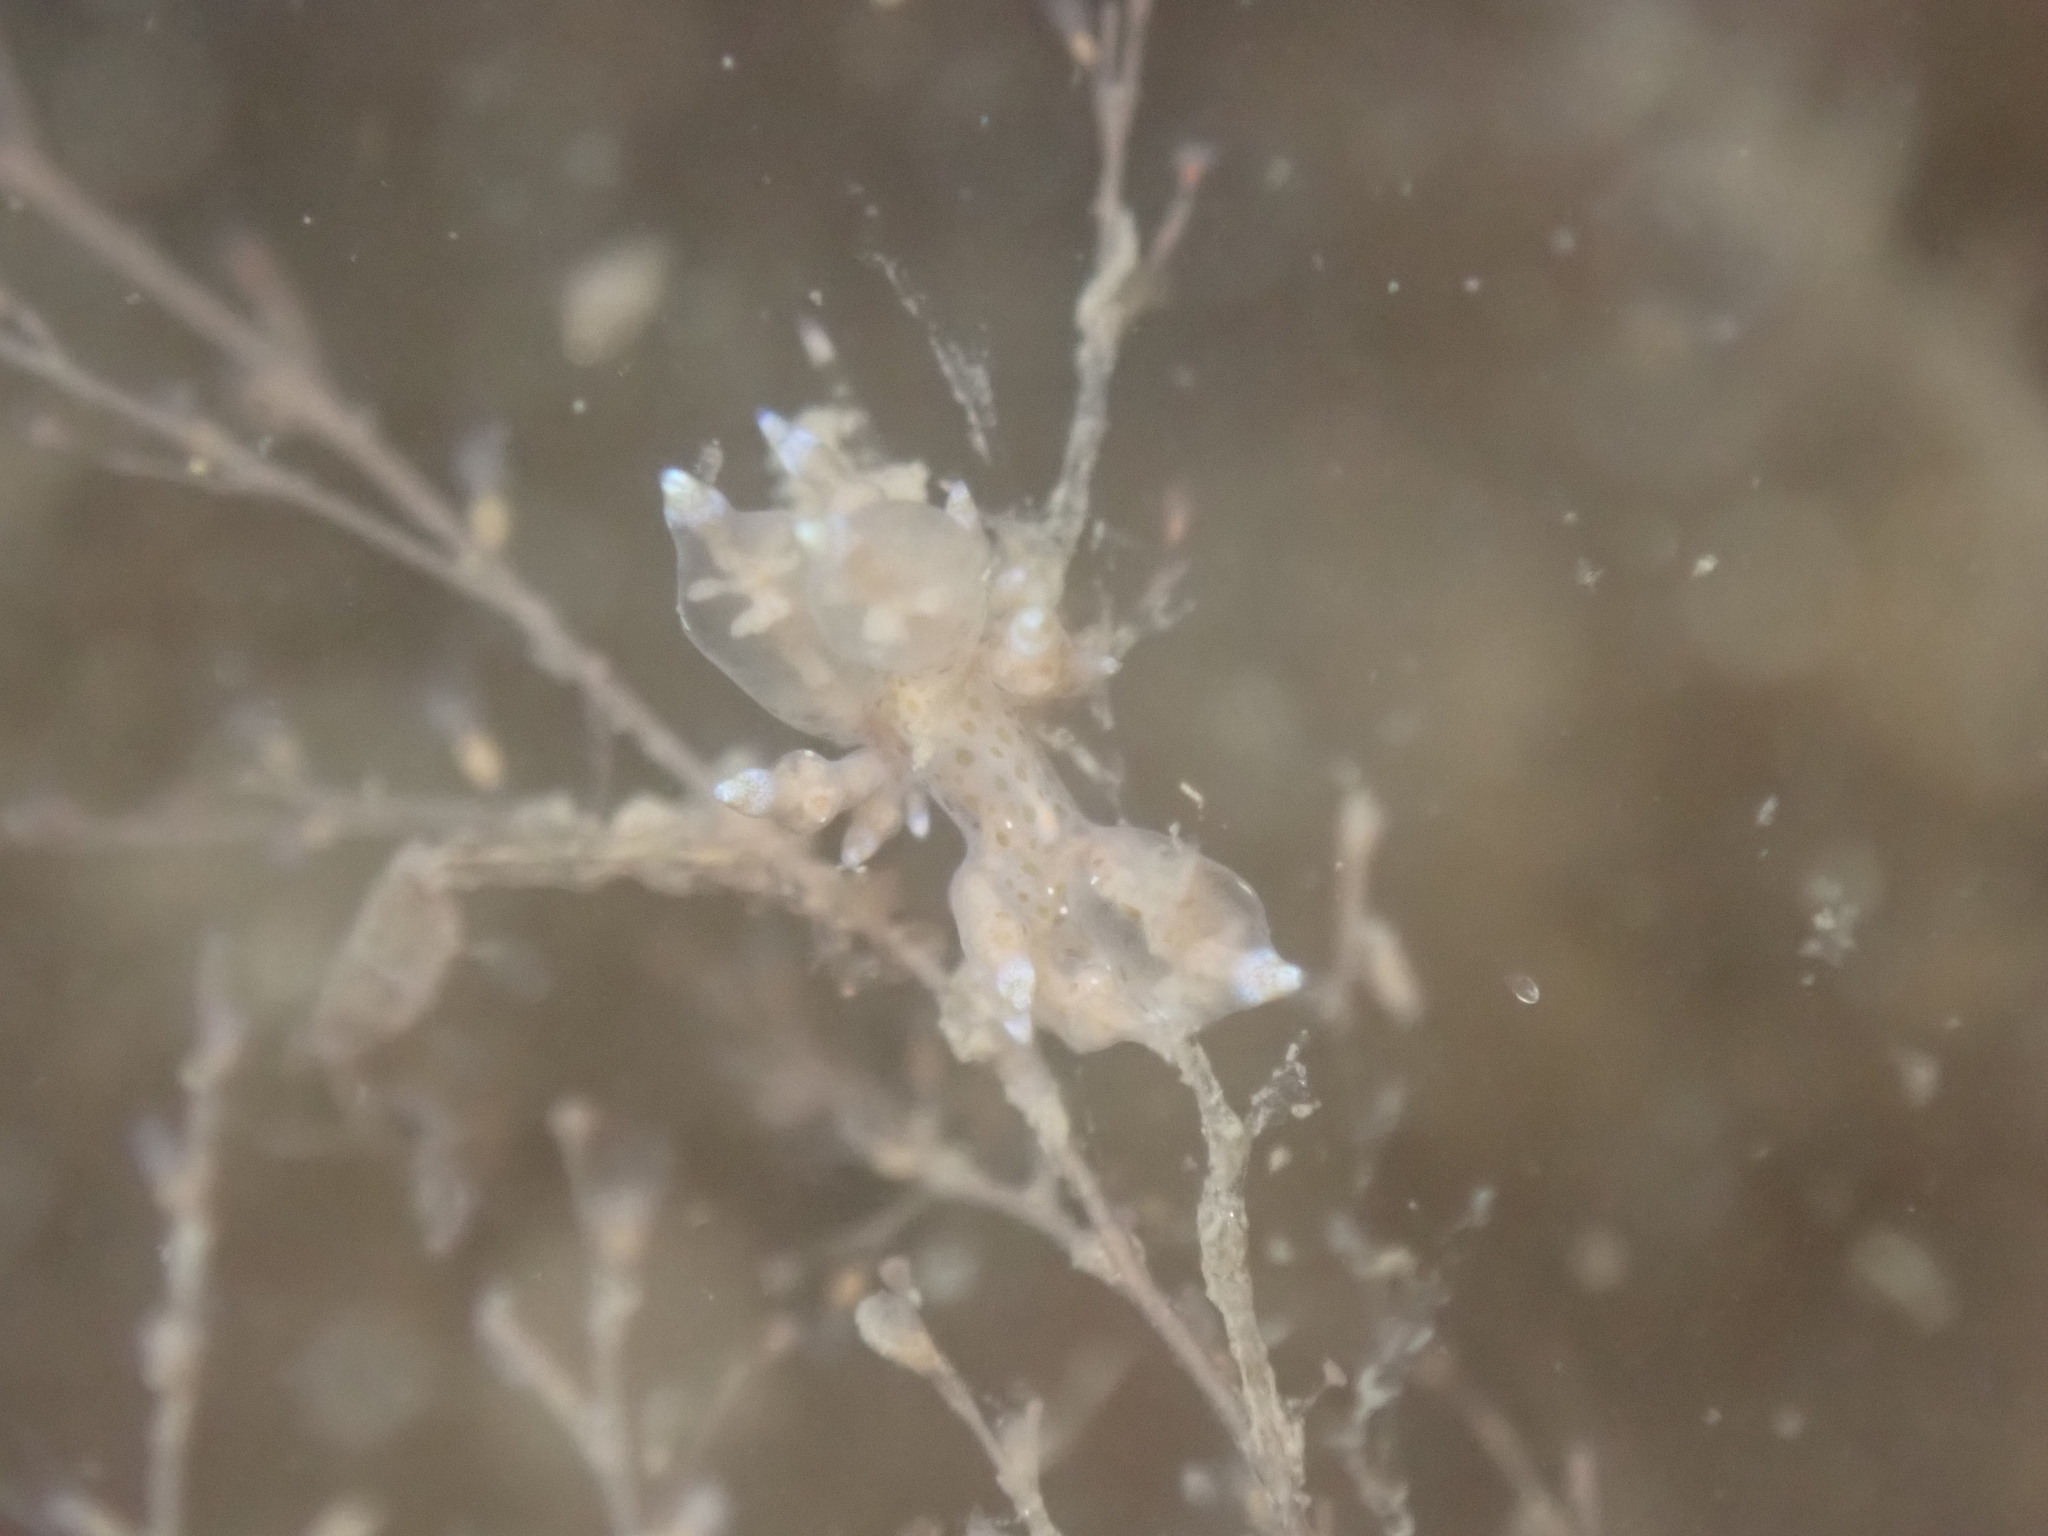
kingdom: Animalia
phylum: Mollusca
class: Gastropoda
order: Nudibranchia
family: Eubranchidae
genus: Eubranchus
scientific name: Eubranchus rustyus
